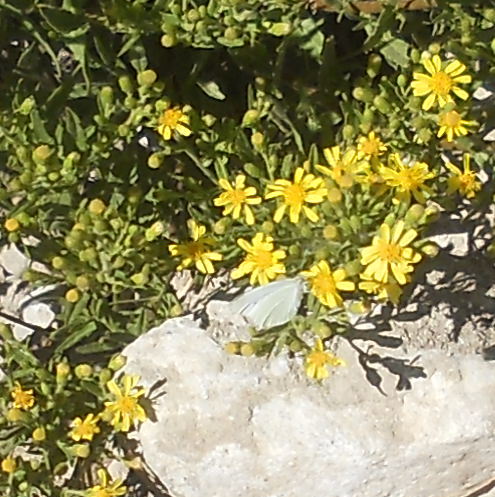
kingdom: Plantae
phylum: Tracheophyta
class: Magnoliopsida
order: Asterales
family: Asteraceae
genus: Dittrichia
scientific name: Dittrichia viscosa
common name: Woody fleabane
